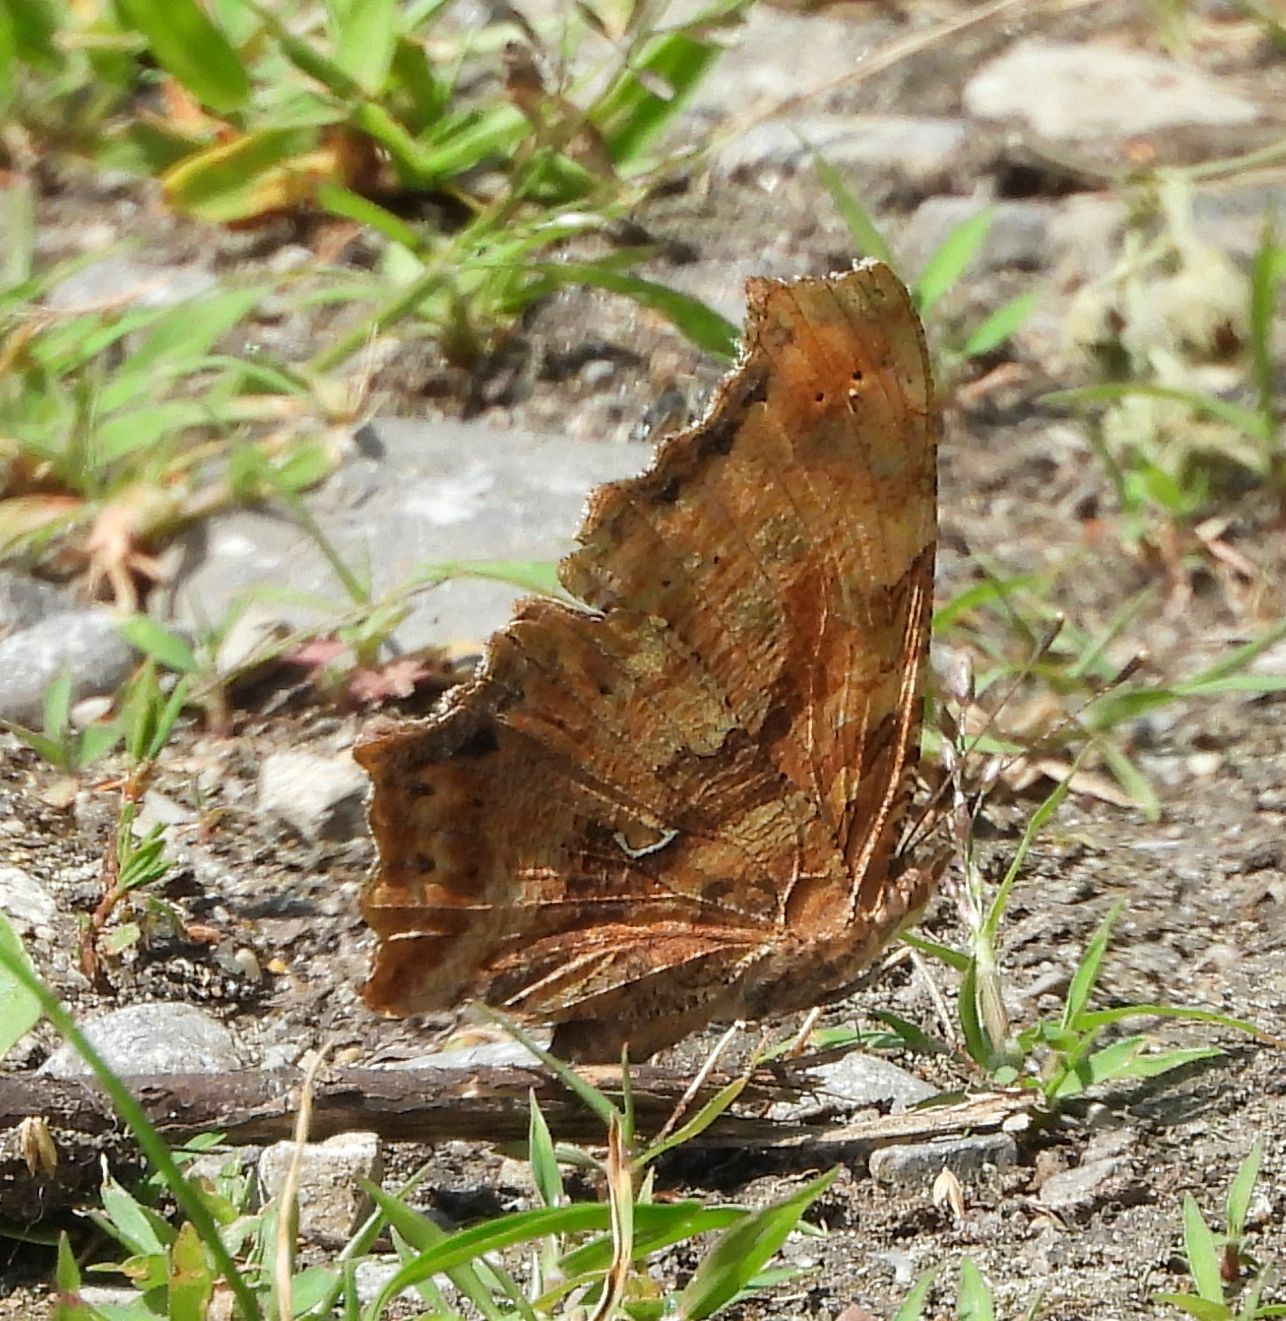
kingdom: Animalia
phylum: Arthropoda
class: Insecta
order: Lepidoptera
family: Nymphalidae
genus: Polygonia
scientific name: Polygonia comma
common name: Eastern comma
